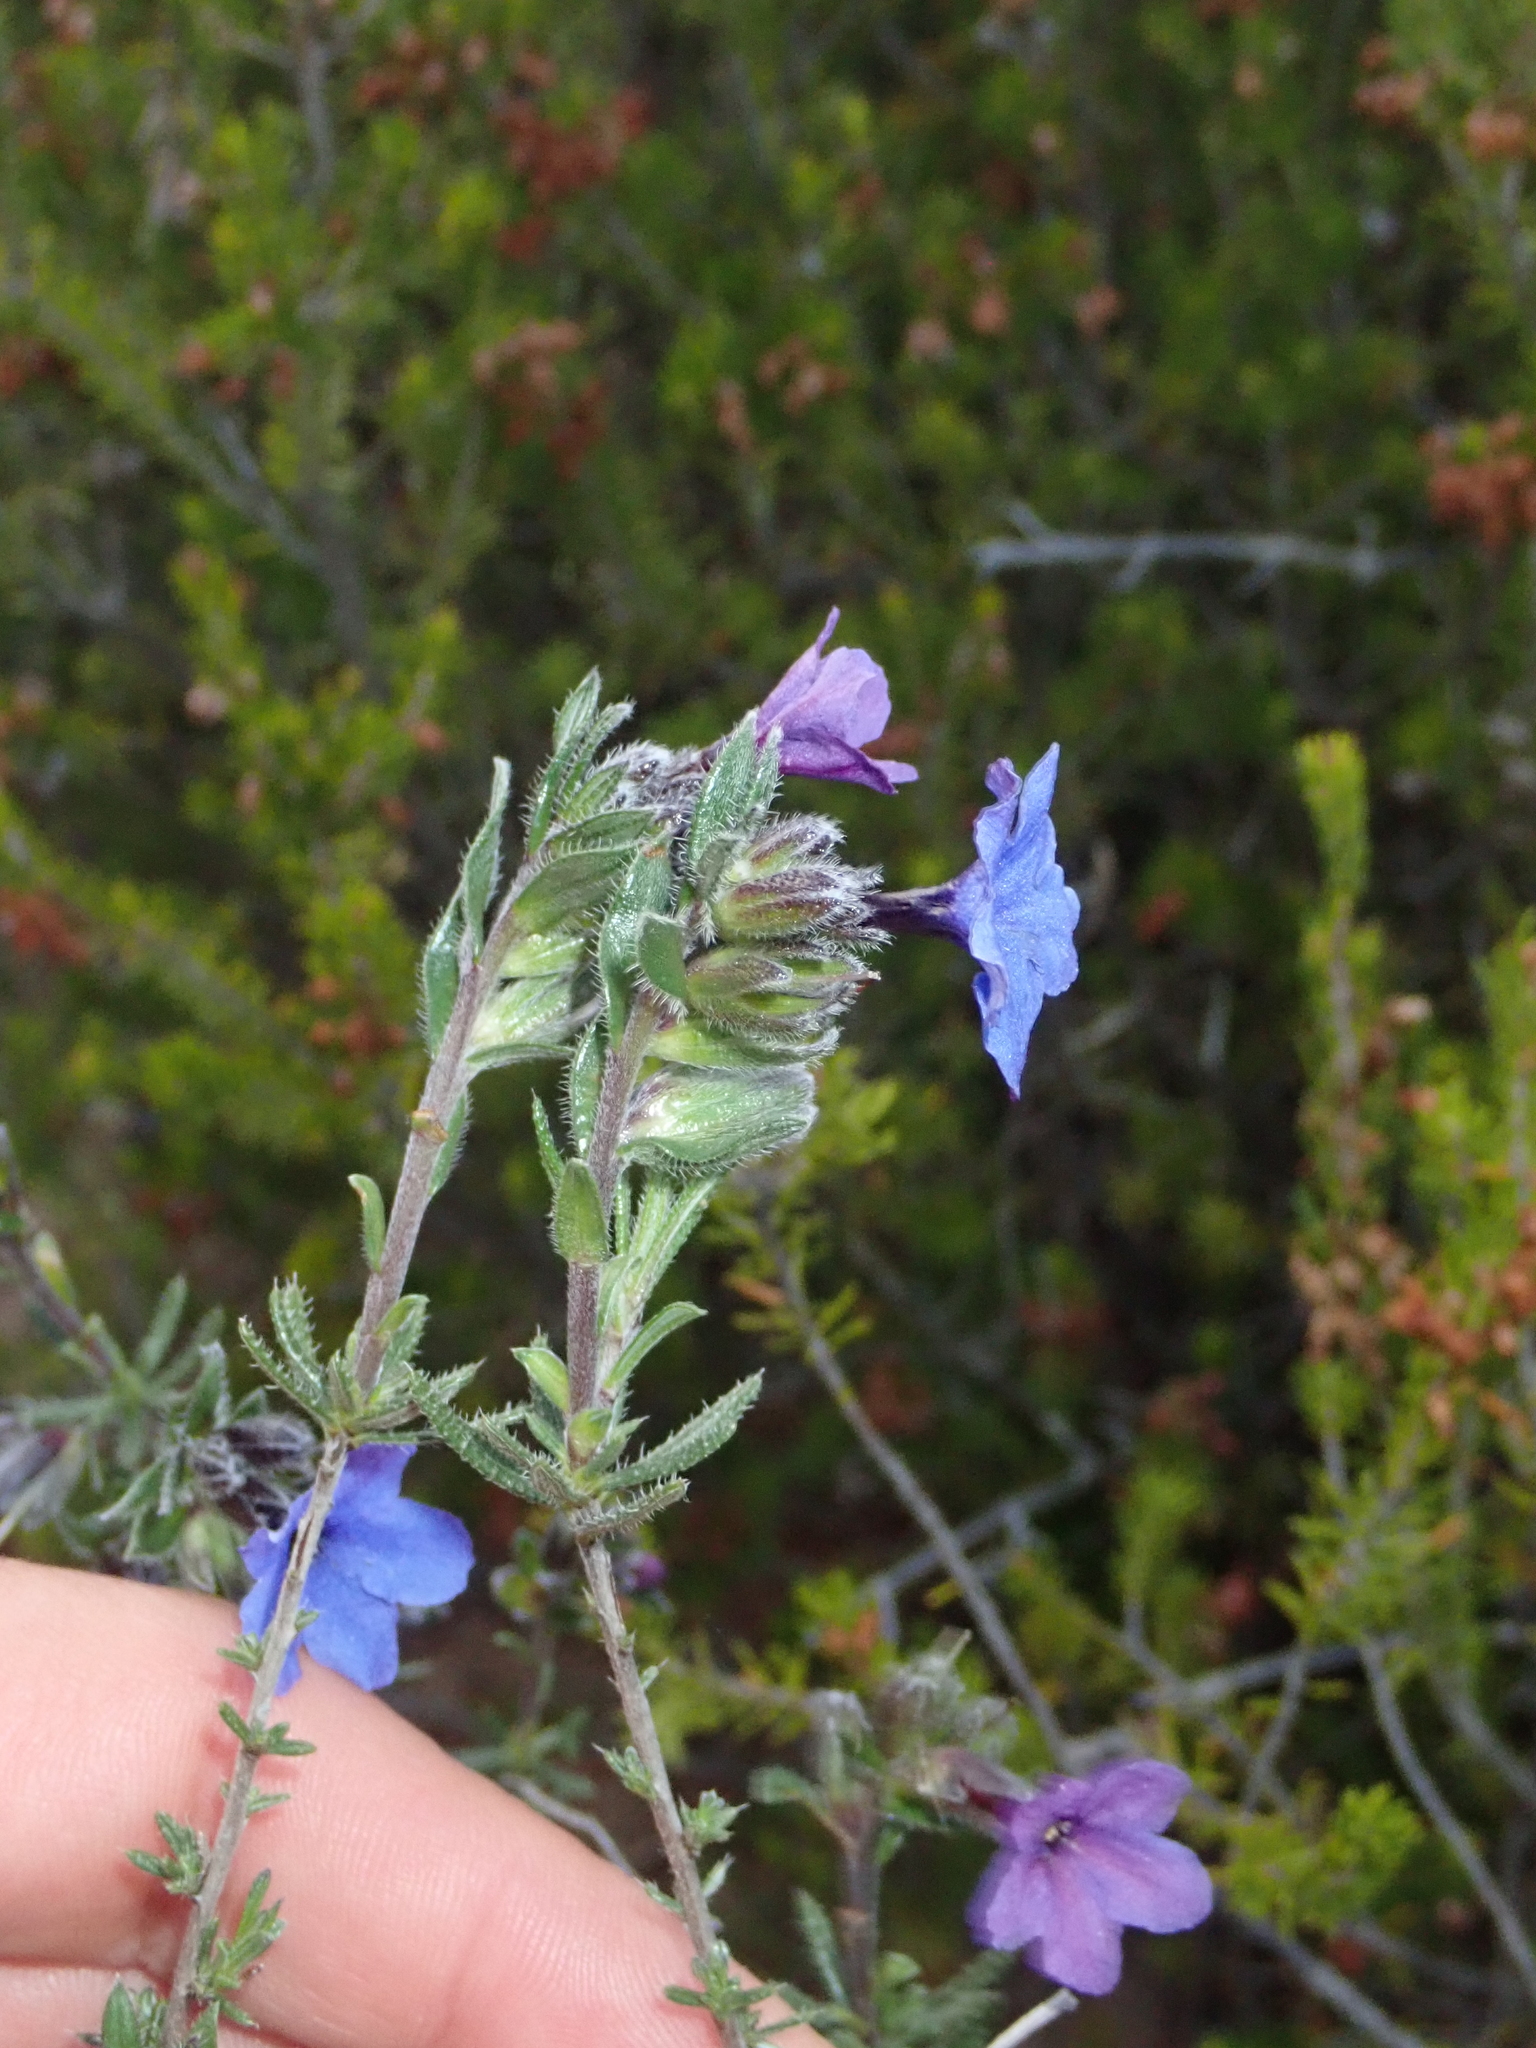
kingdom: Plantae
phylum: Tracheophyta
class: Magnoliopsida
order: Boraginales
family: Boraginaceae
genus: Lithodora
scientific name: Lithodora fruticosa
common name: Shrubby gromwell
